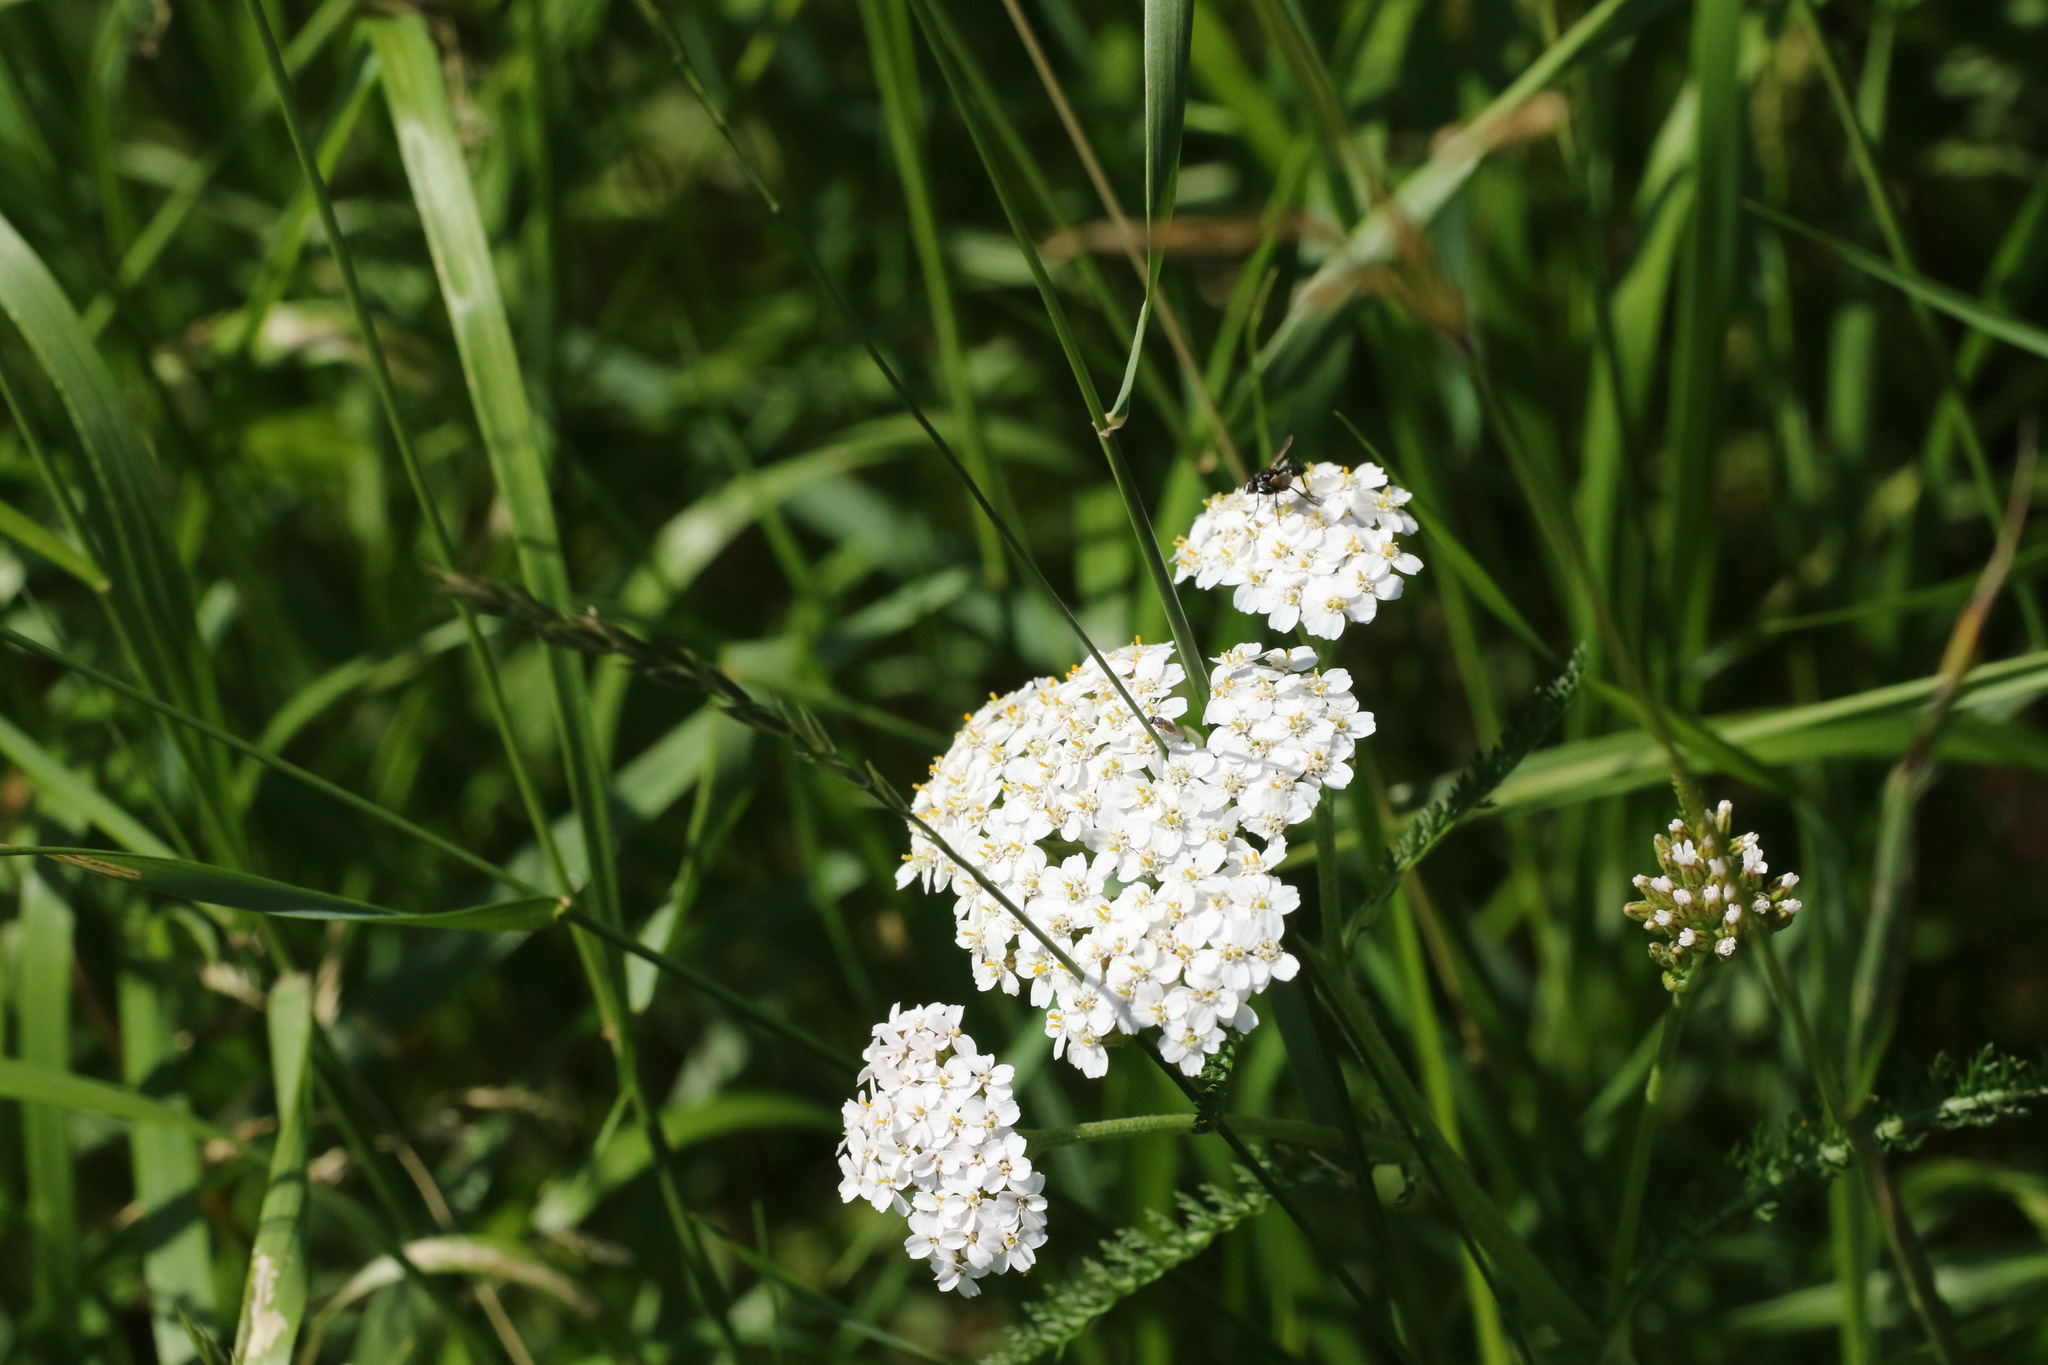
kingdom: Plantae
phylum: Tracheophyta
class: Magnoliopsida
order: Asterales
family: Asteraceae
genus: Achillea
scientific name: Achillea millefolium
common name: Yarrow
